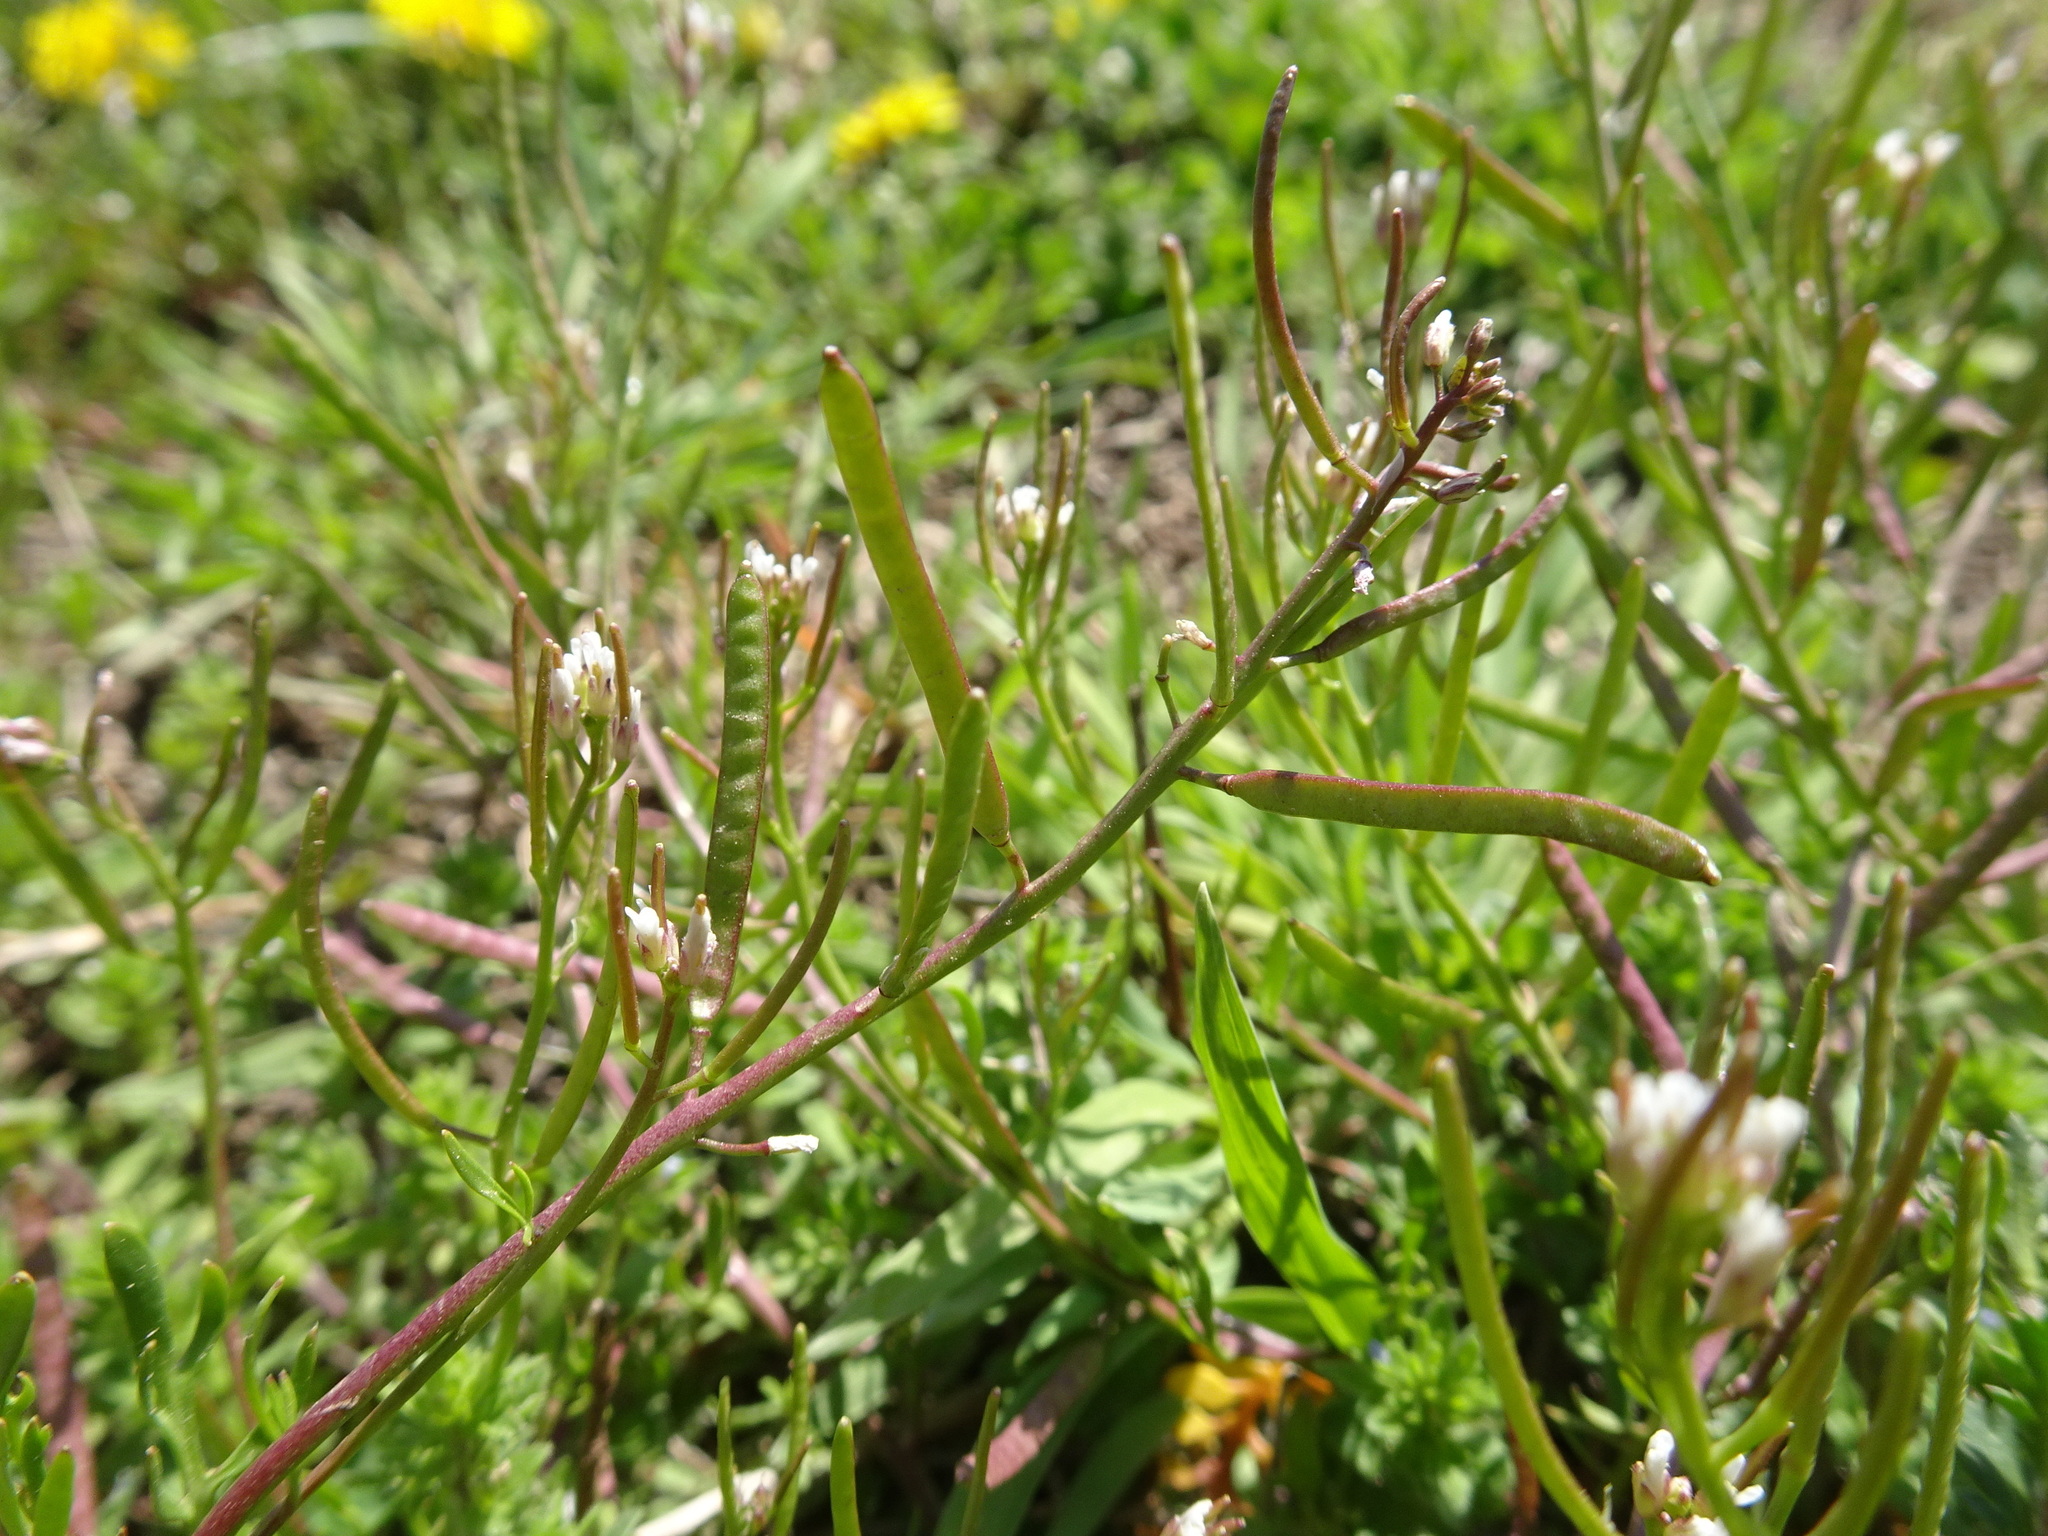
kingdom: Plantae
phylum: Tracheophyta
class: Magnoliopsida
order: Brassicales
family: Brassicaceae
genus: Planodes
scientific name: Planodes virginicum
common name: Virginia cress
